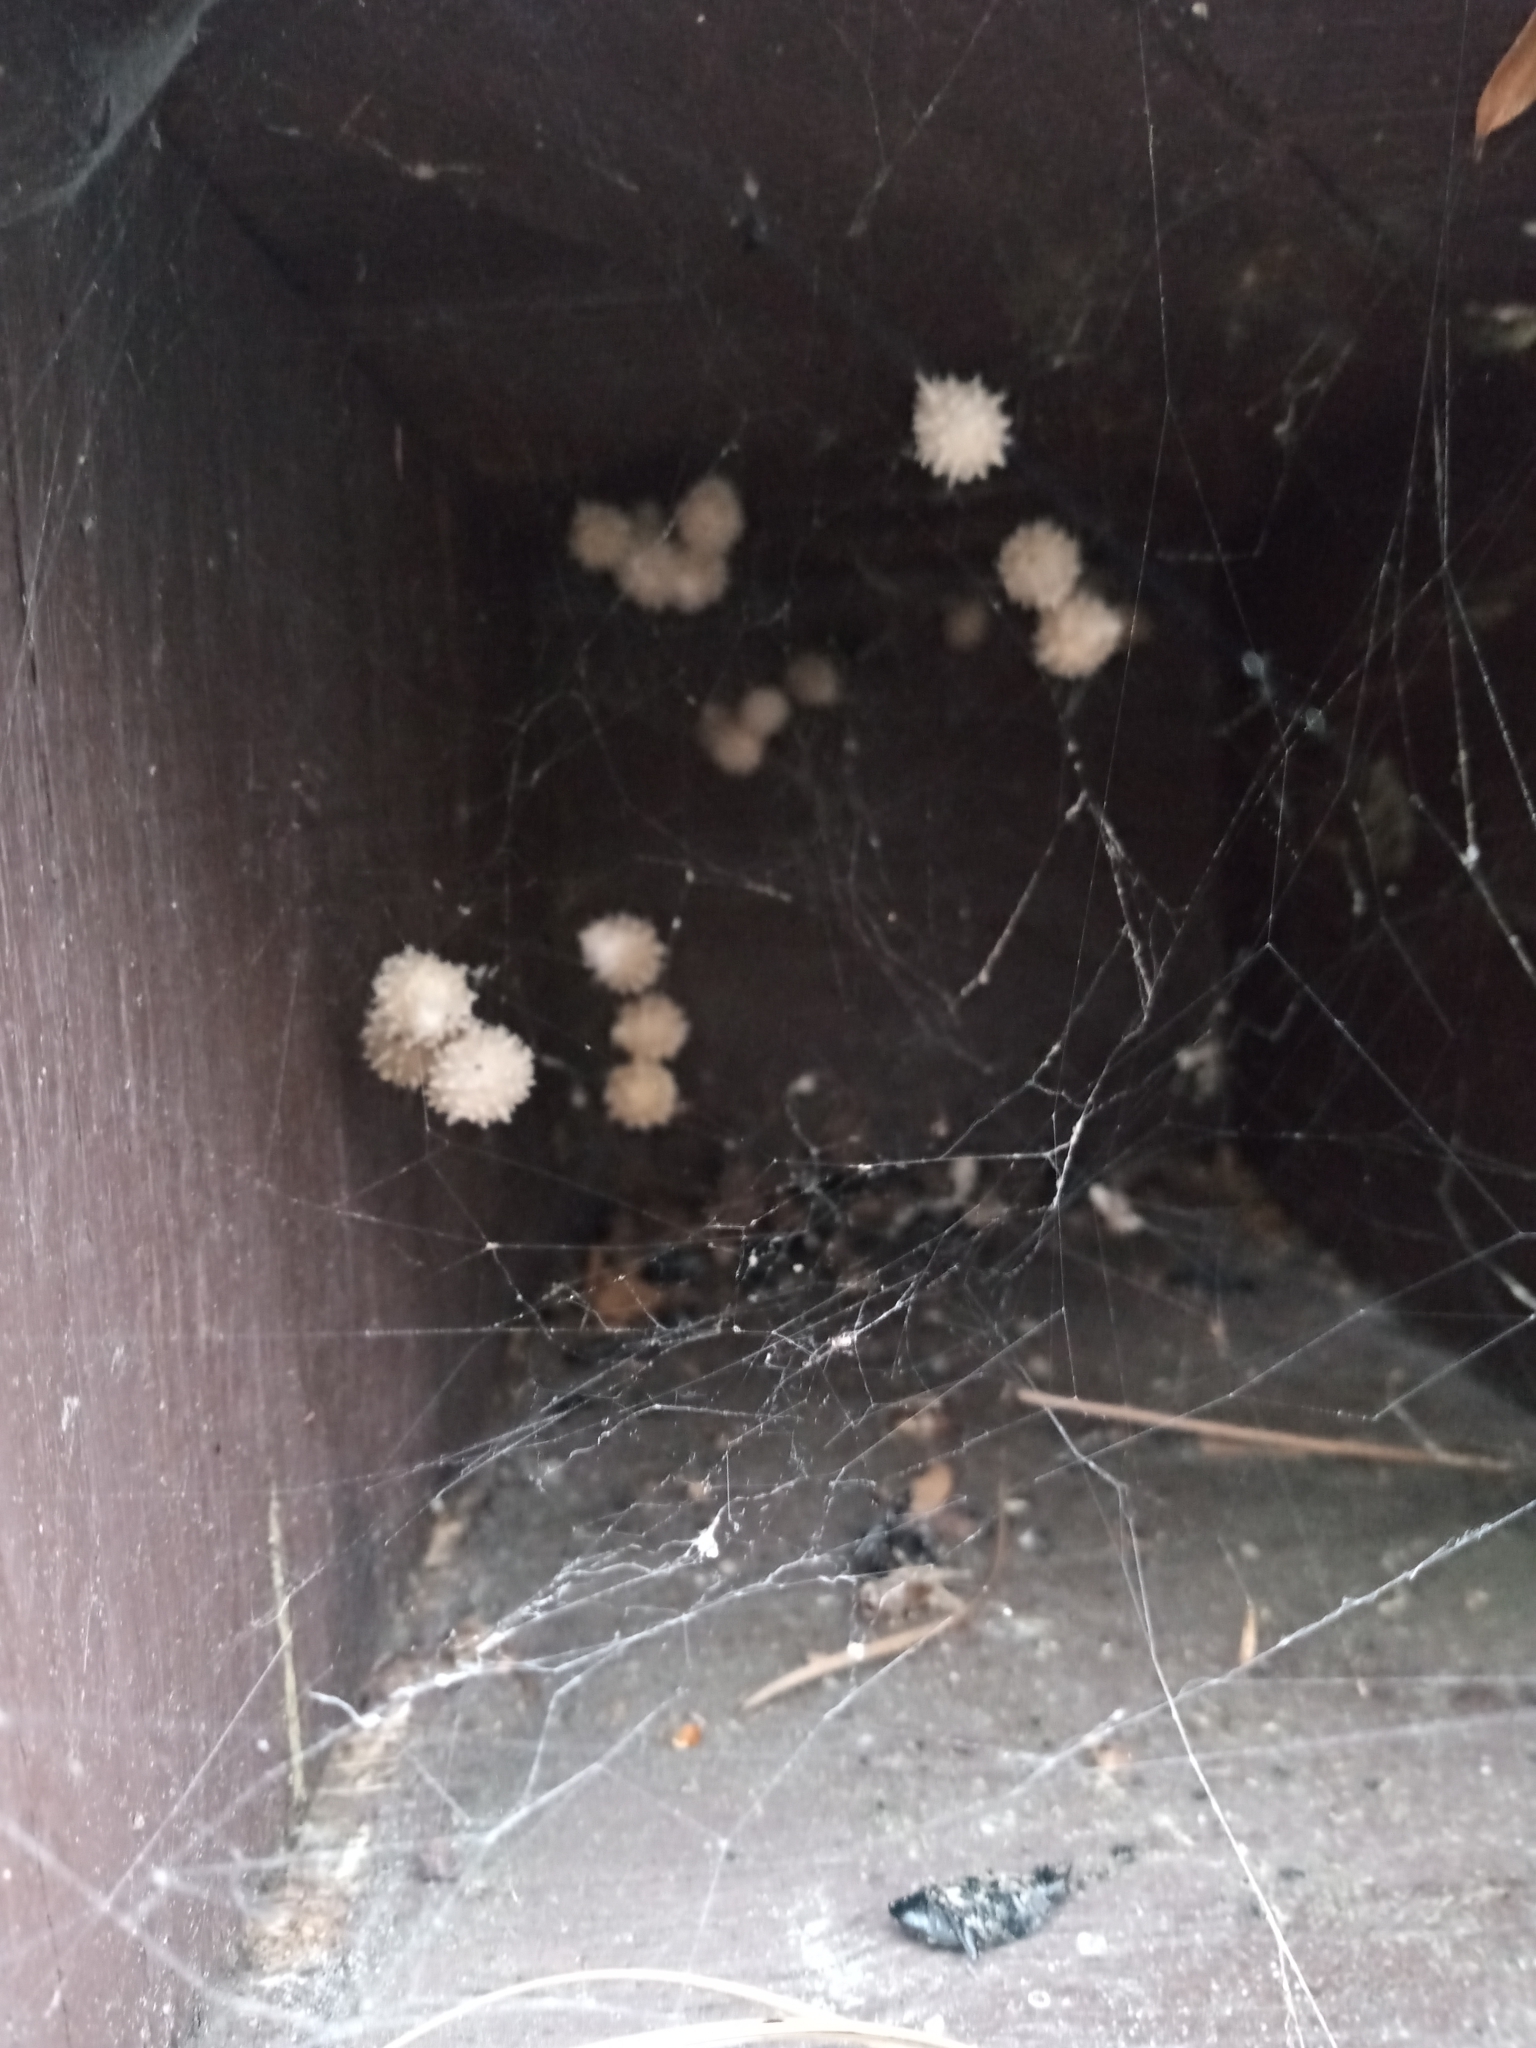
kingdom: Animalia
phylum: Arthropoda
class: Arachnida
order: Araneae
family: Theridiidae
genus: Latrodectus
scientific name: Latrodectus geometricus
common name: Brown widow spider
